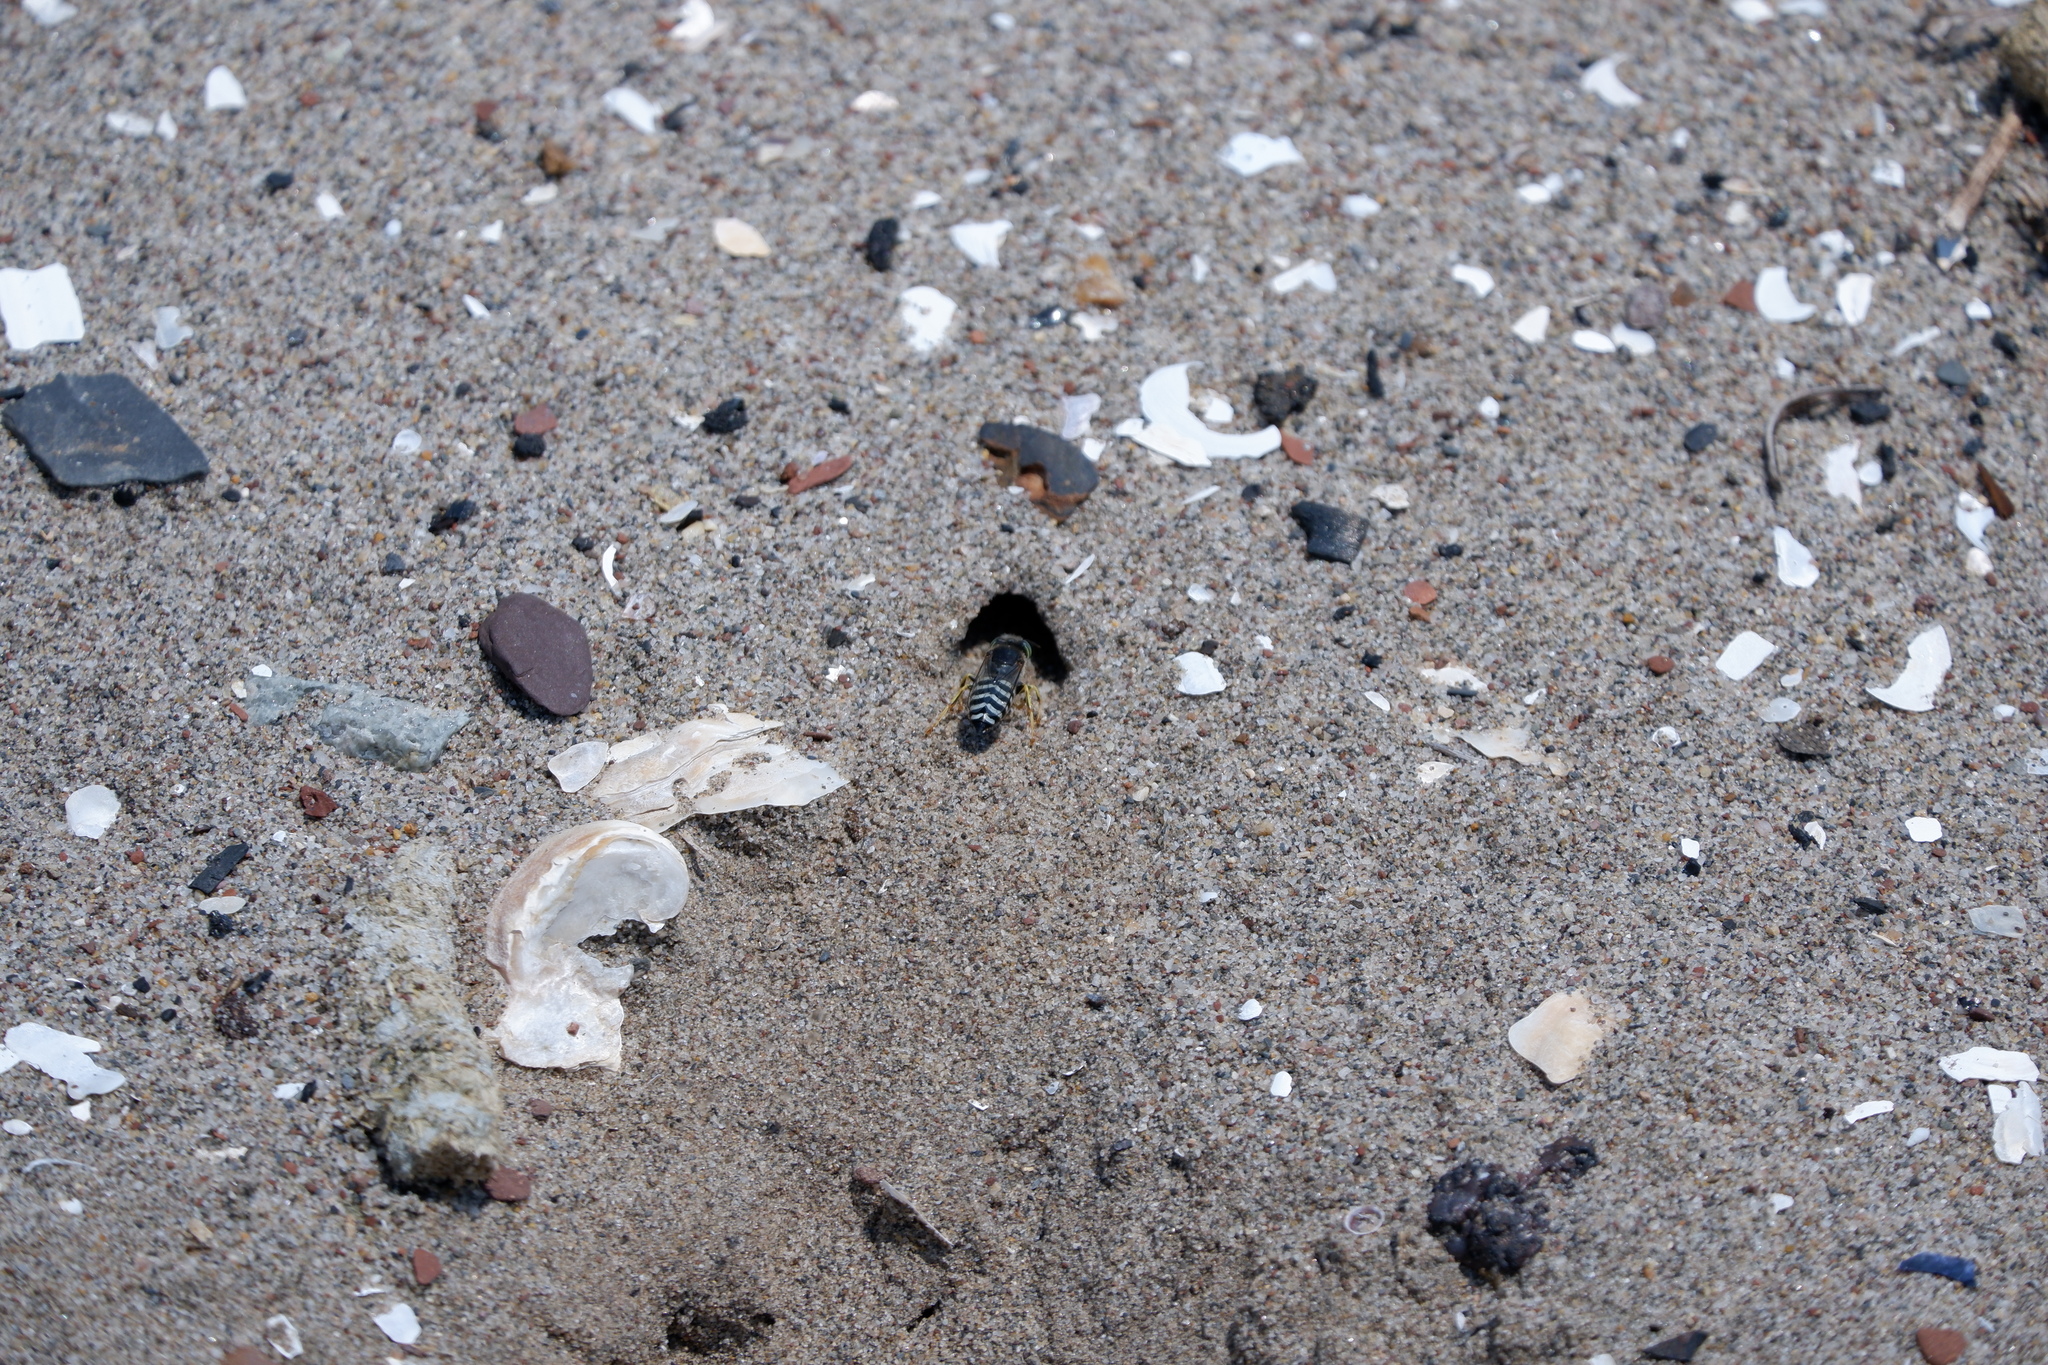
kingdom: Animalia
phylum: Arthropoda
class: Insecta
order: Hymenoptera
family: Crabronidae
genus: Bembix
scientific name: Bembix americana
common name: American sand wasp
